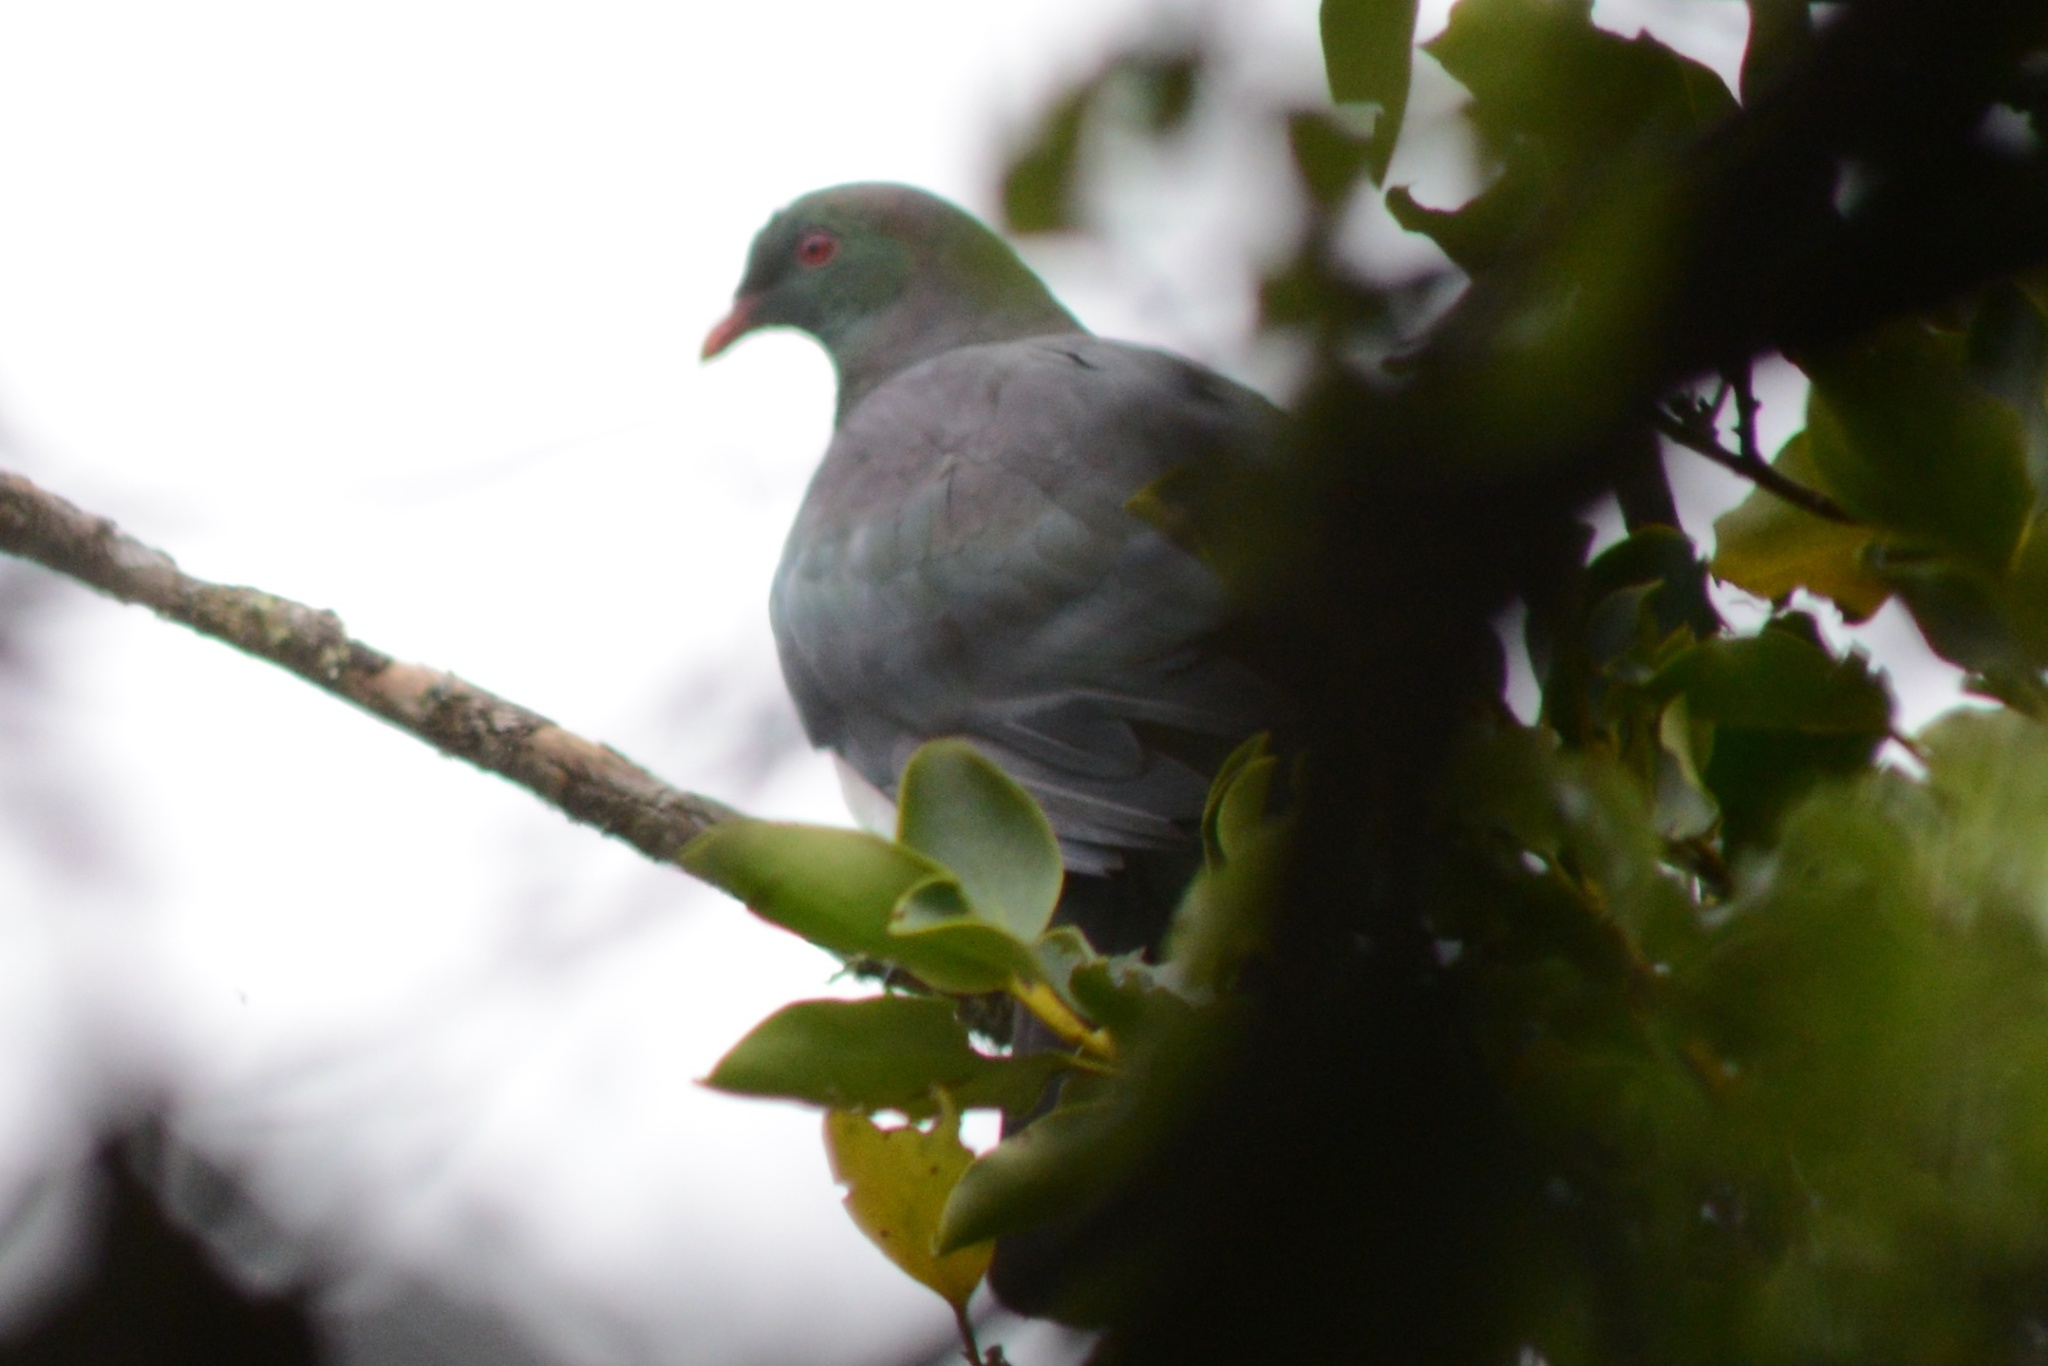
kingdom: Animalia
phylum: Chordata
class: Aves
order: Columbiformes
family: Columbidae
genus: Hemiphaga
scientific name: Hemiphaga novaeseelandiae
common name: New zealand pigeon
